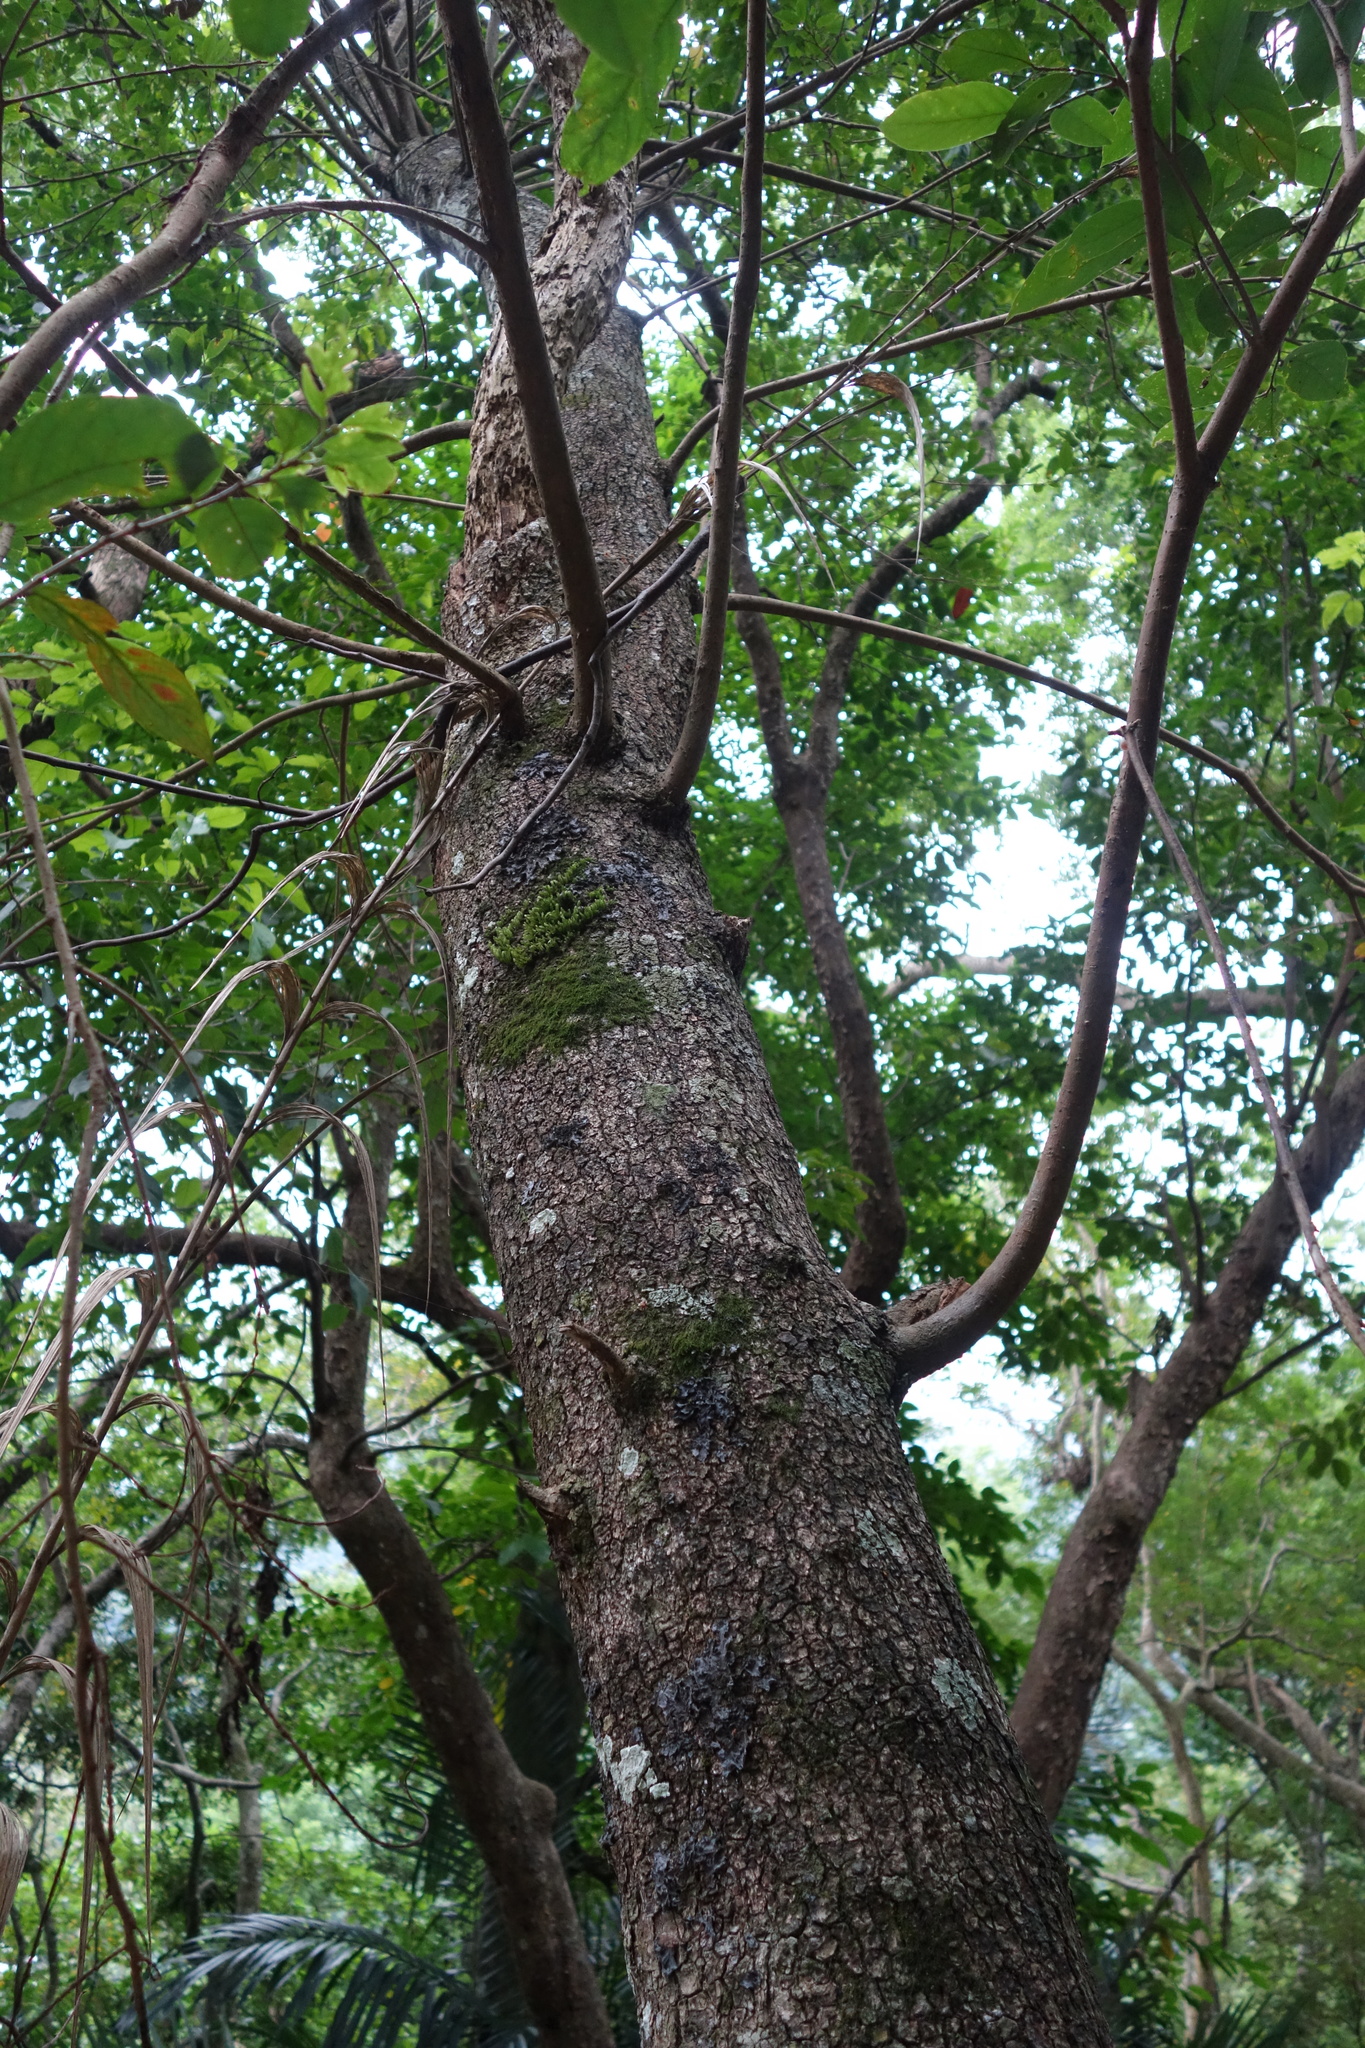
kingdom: Plantae
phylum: Tracheophyta
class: Magnoliopsida
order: Malpighiales
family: Phyllanthaceae
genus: Bridelia
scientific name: Bridelia balansae
